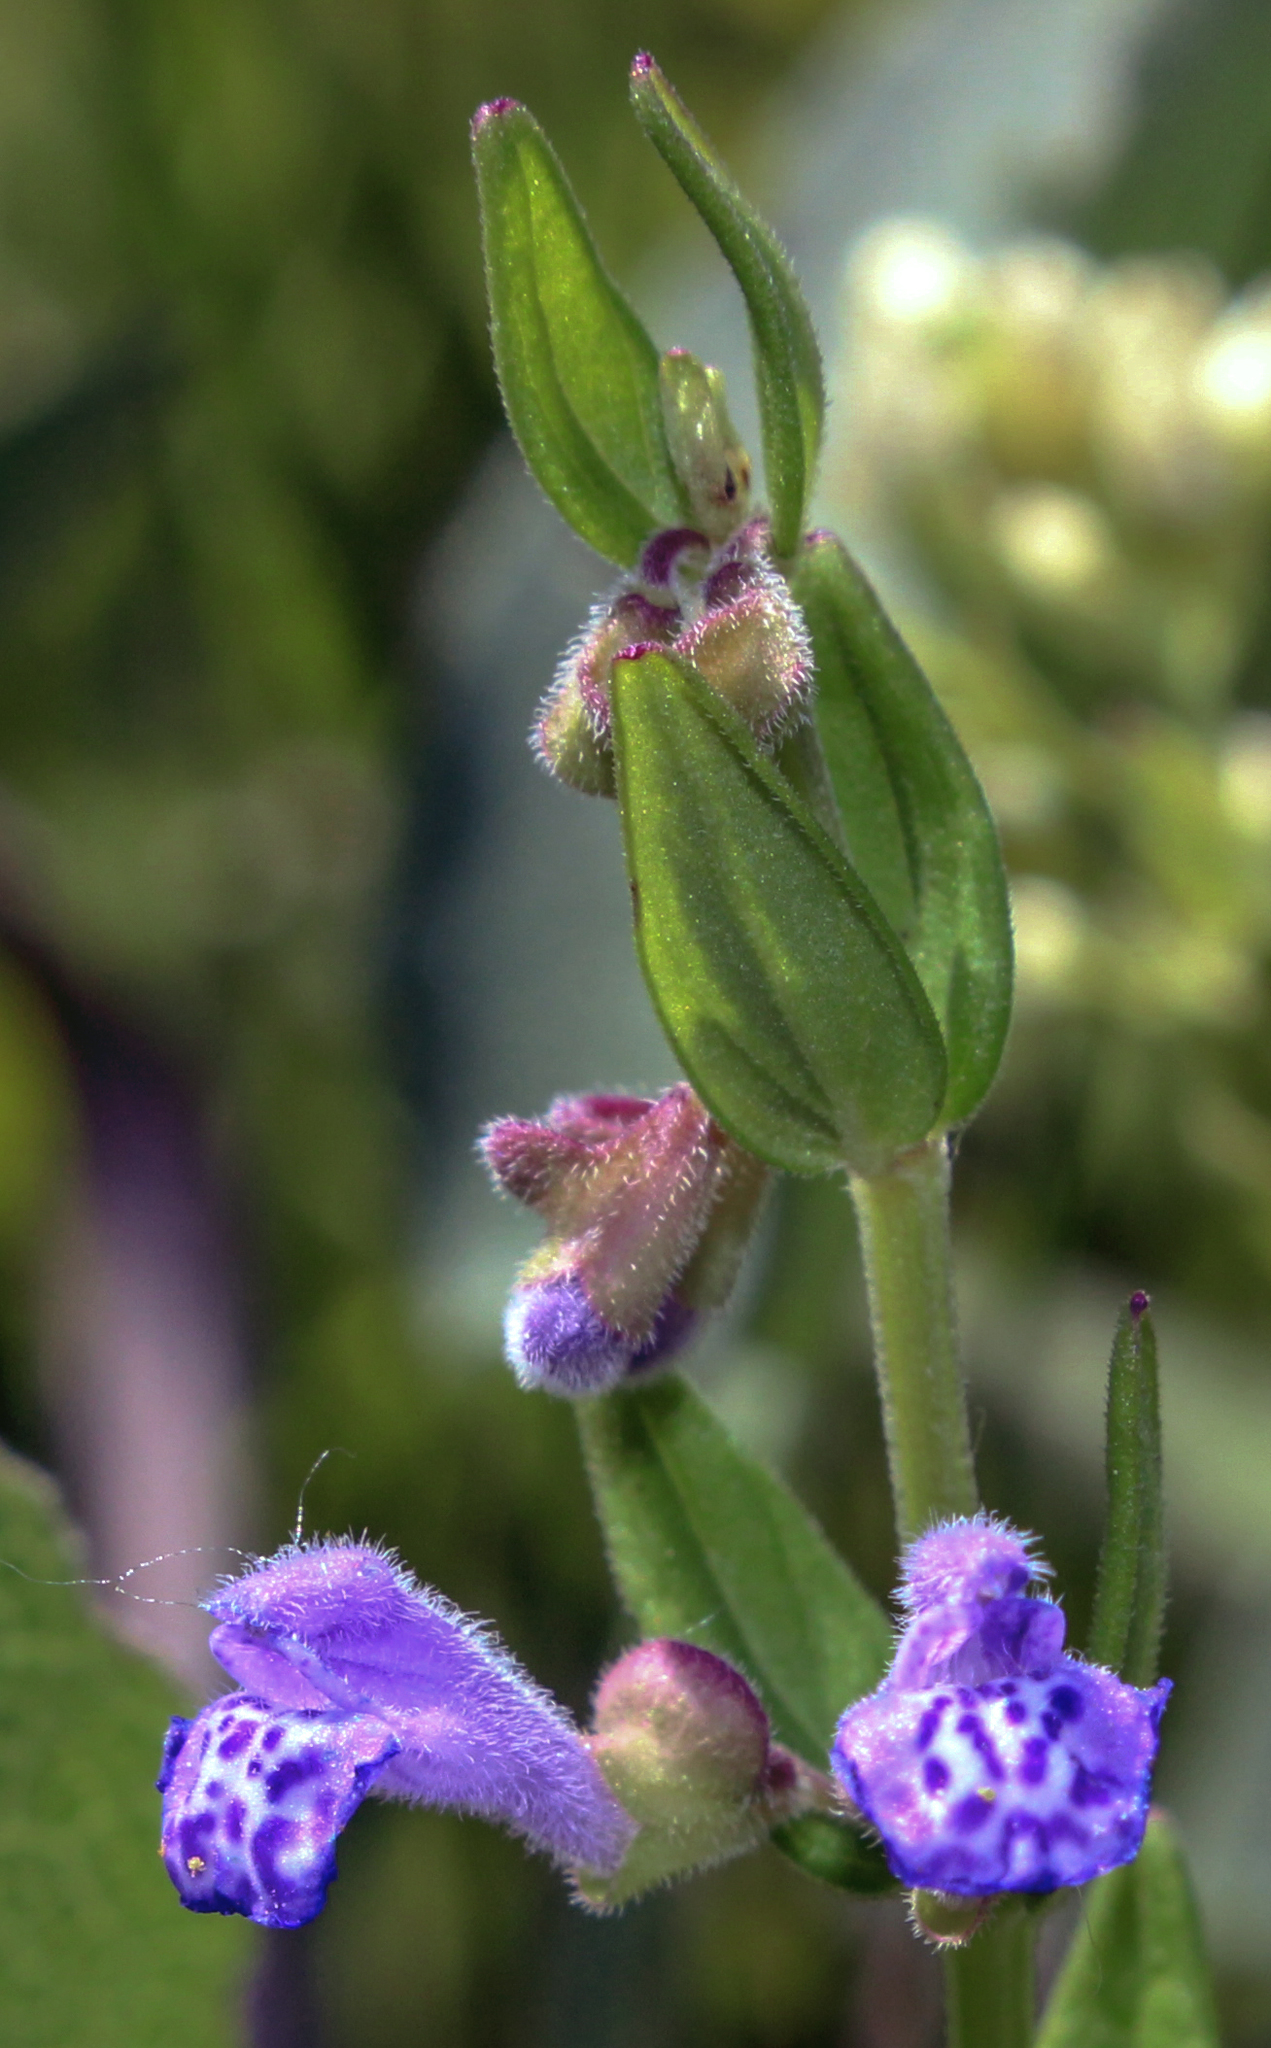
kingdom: Plantae
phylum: Tracheophyta
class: Magnoliopsida
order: Lamiales
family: Lamiaceae
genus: Scutellaria
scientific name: Scutellaria parvula
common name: Little scullcap
